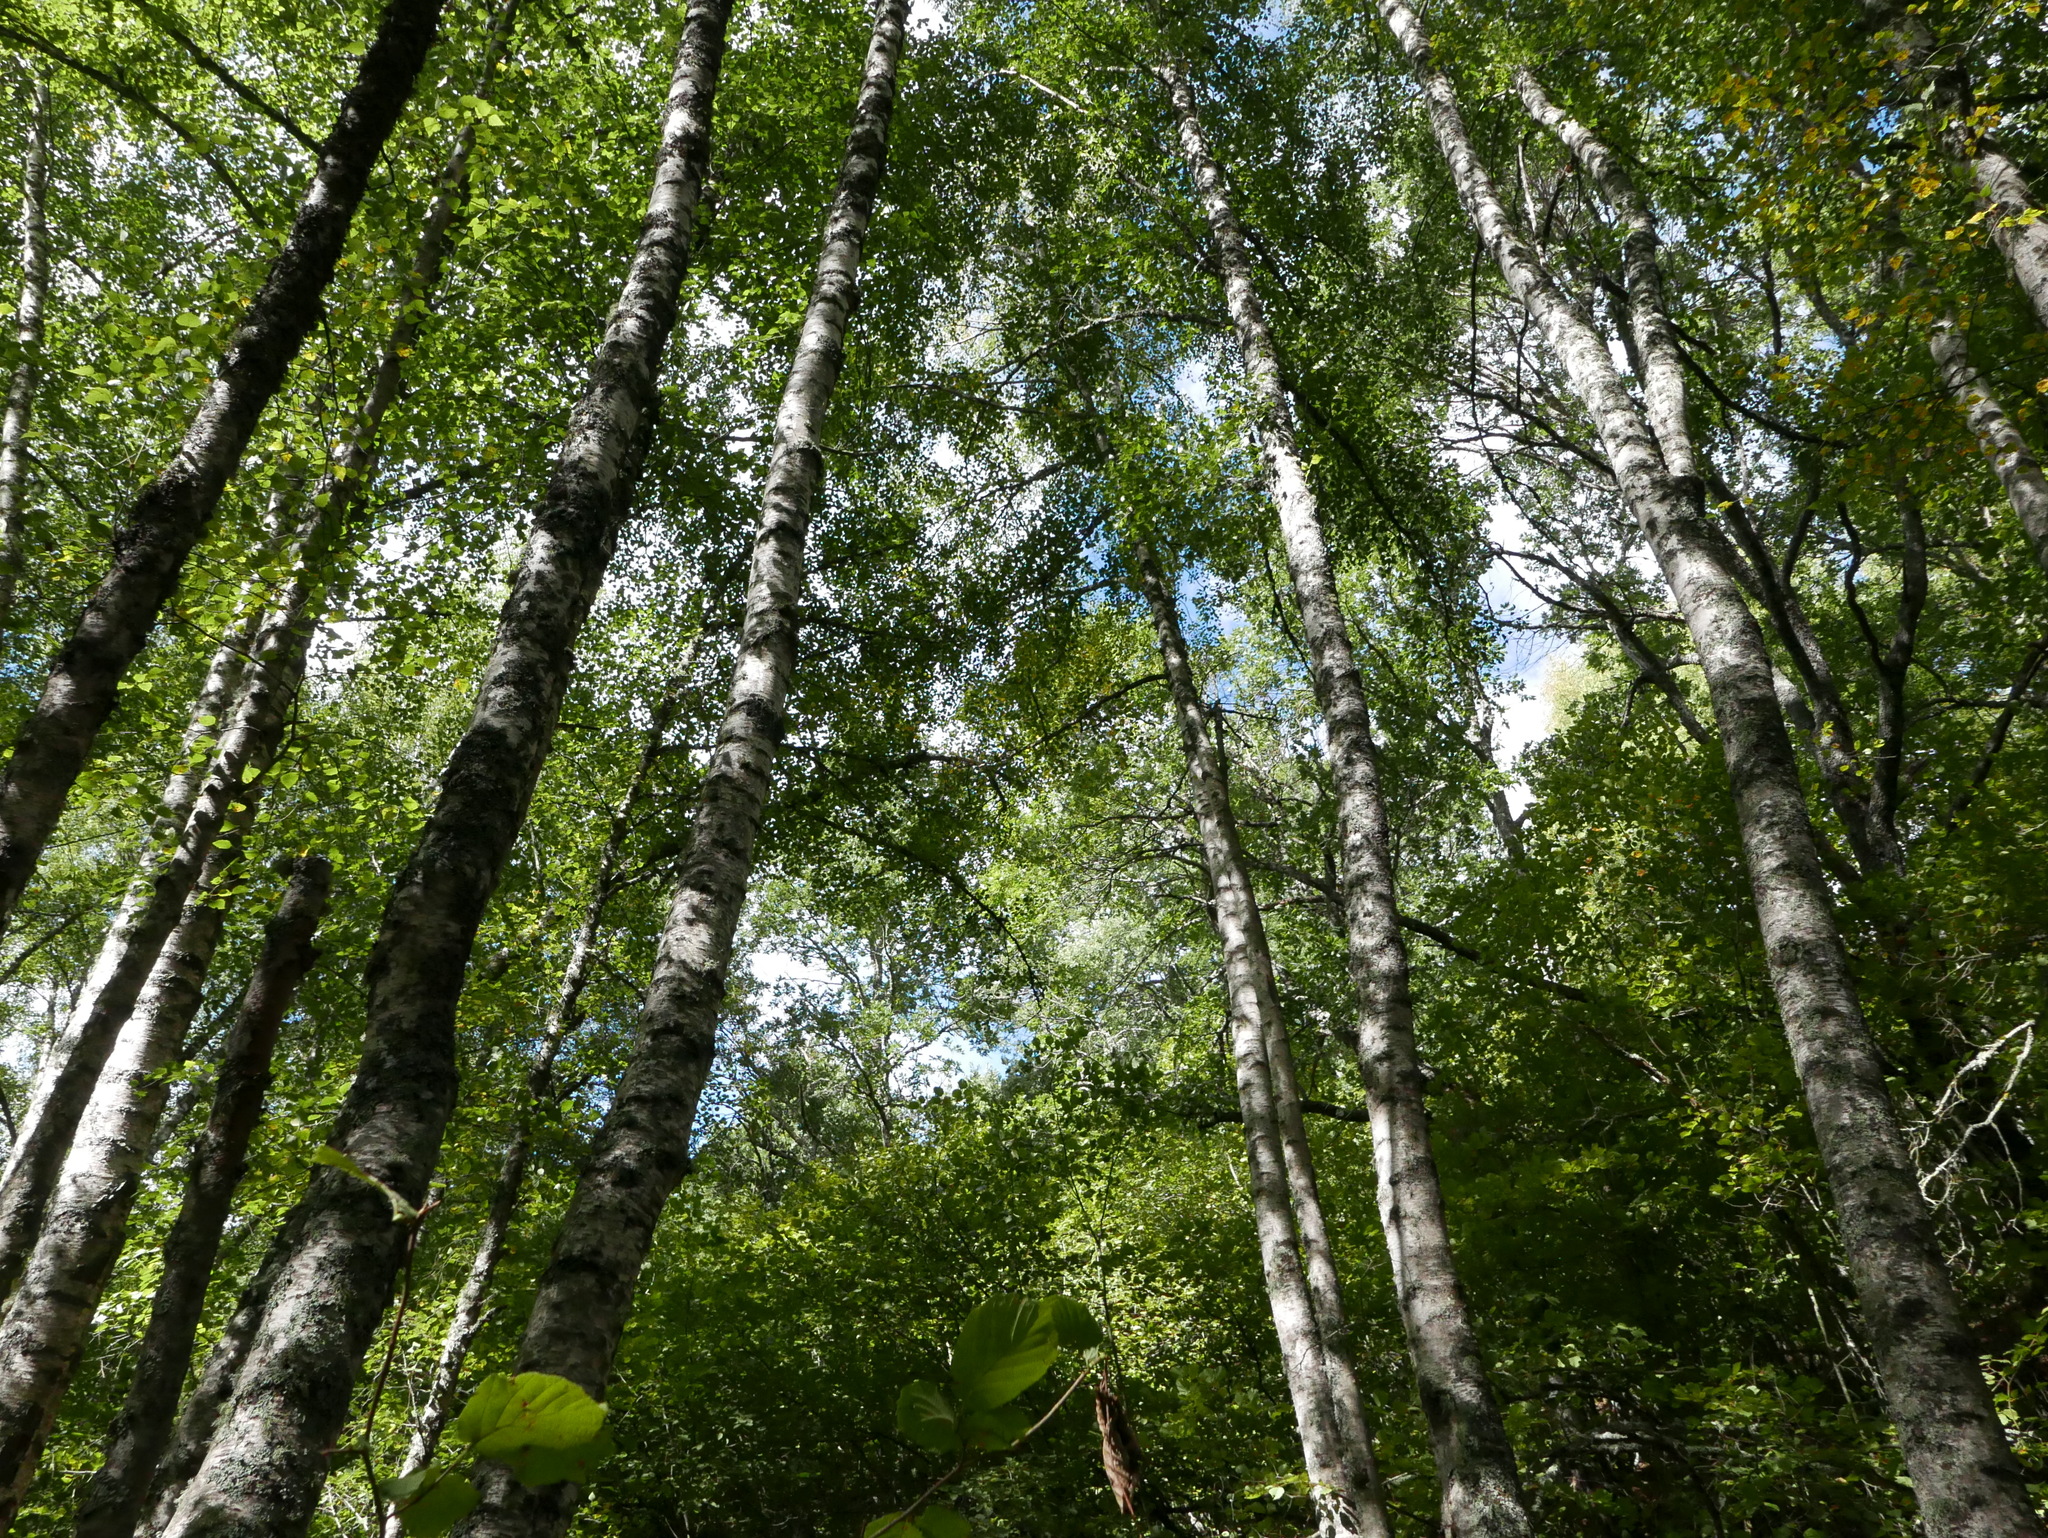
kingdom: Plantae
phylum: Tracheophyta
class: Magnoliopsida
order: Fagales
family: Betulaceae
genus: Betula
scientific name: Betula pendula
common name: Silver birch
